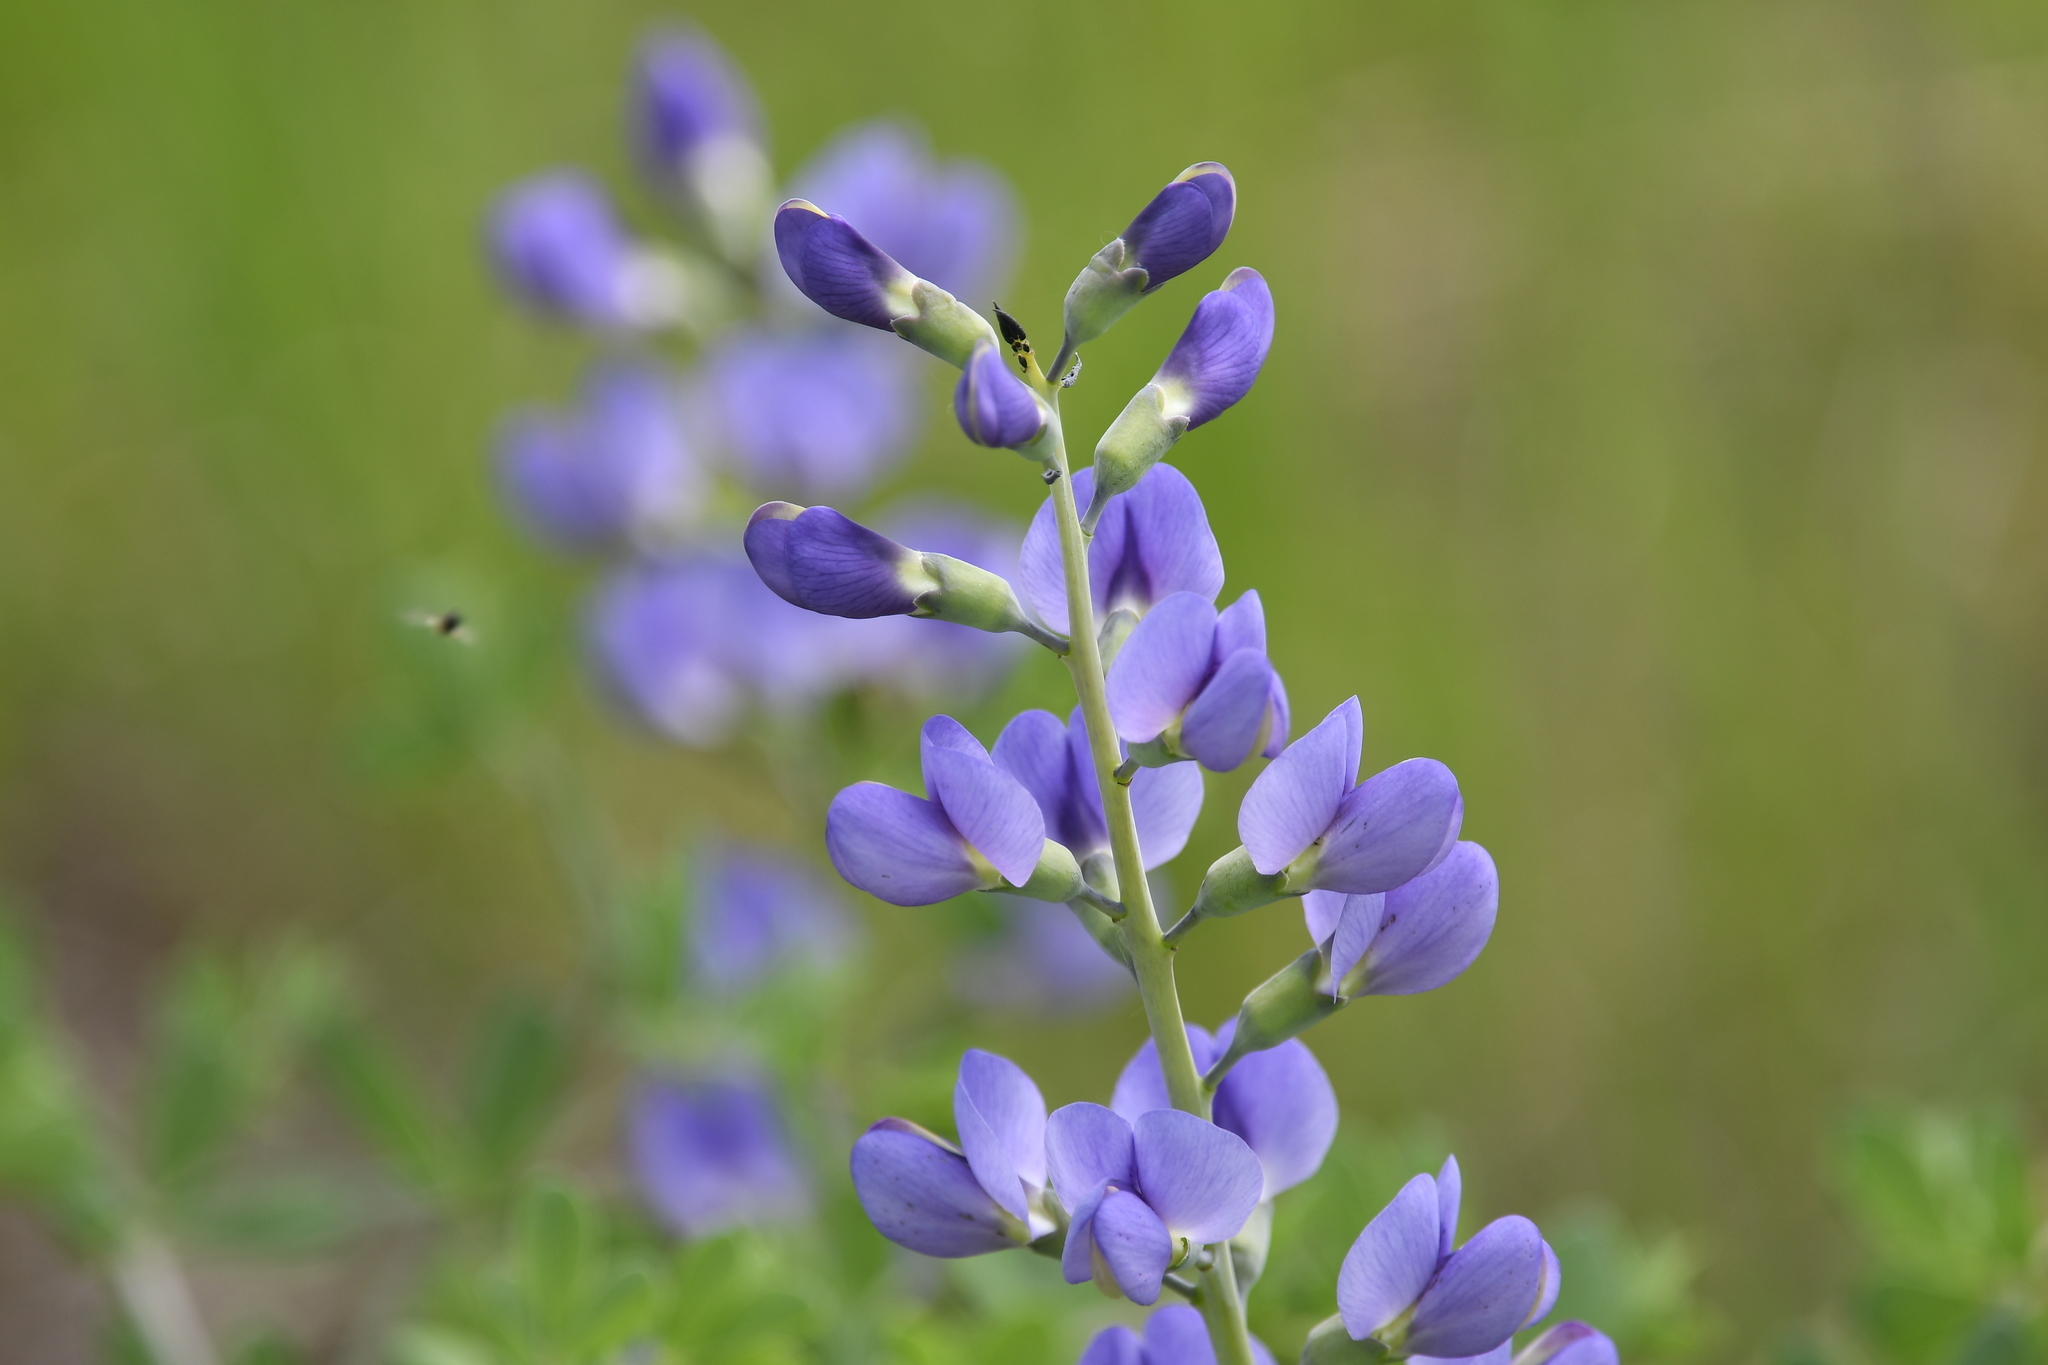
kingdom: Plantae
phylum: Tracheophyta
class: Magnoliopsida
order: Fabales
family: Fabaceae
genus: Baptisia
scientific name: Baptisia australis
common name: Blue false indigo
